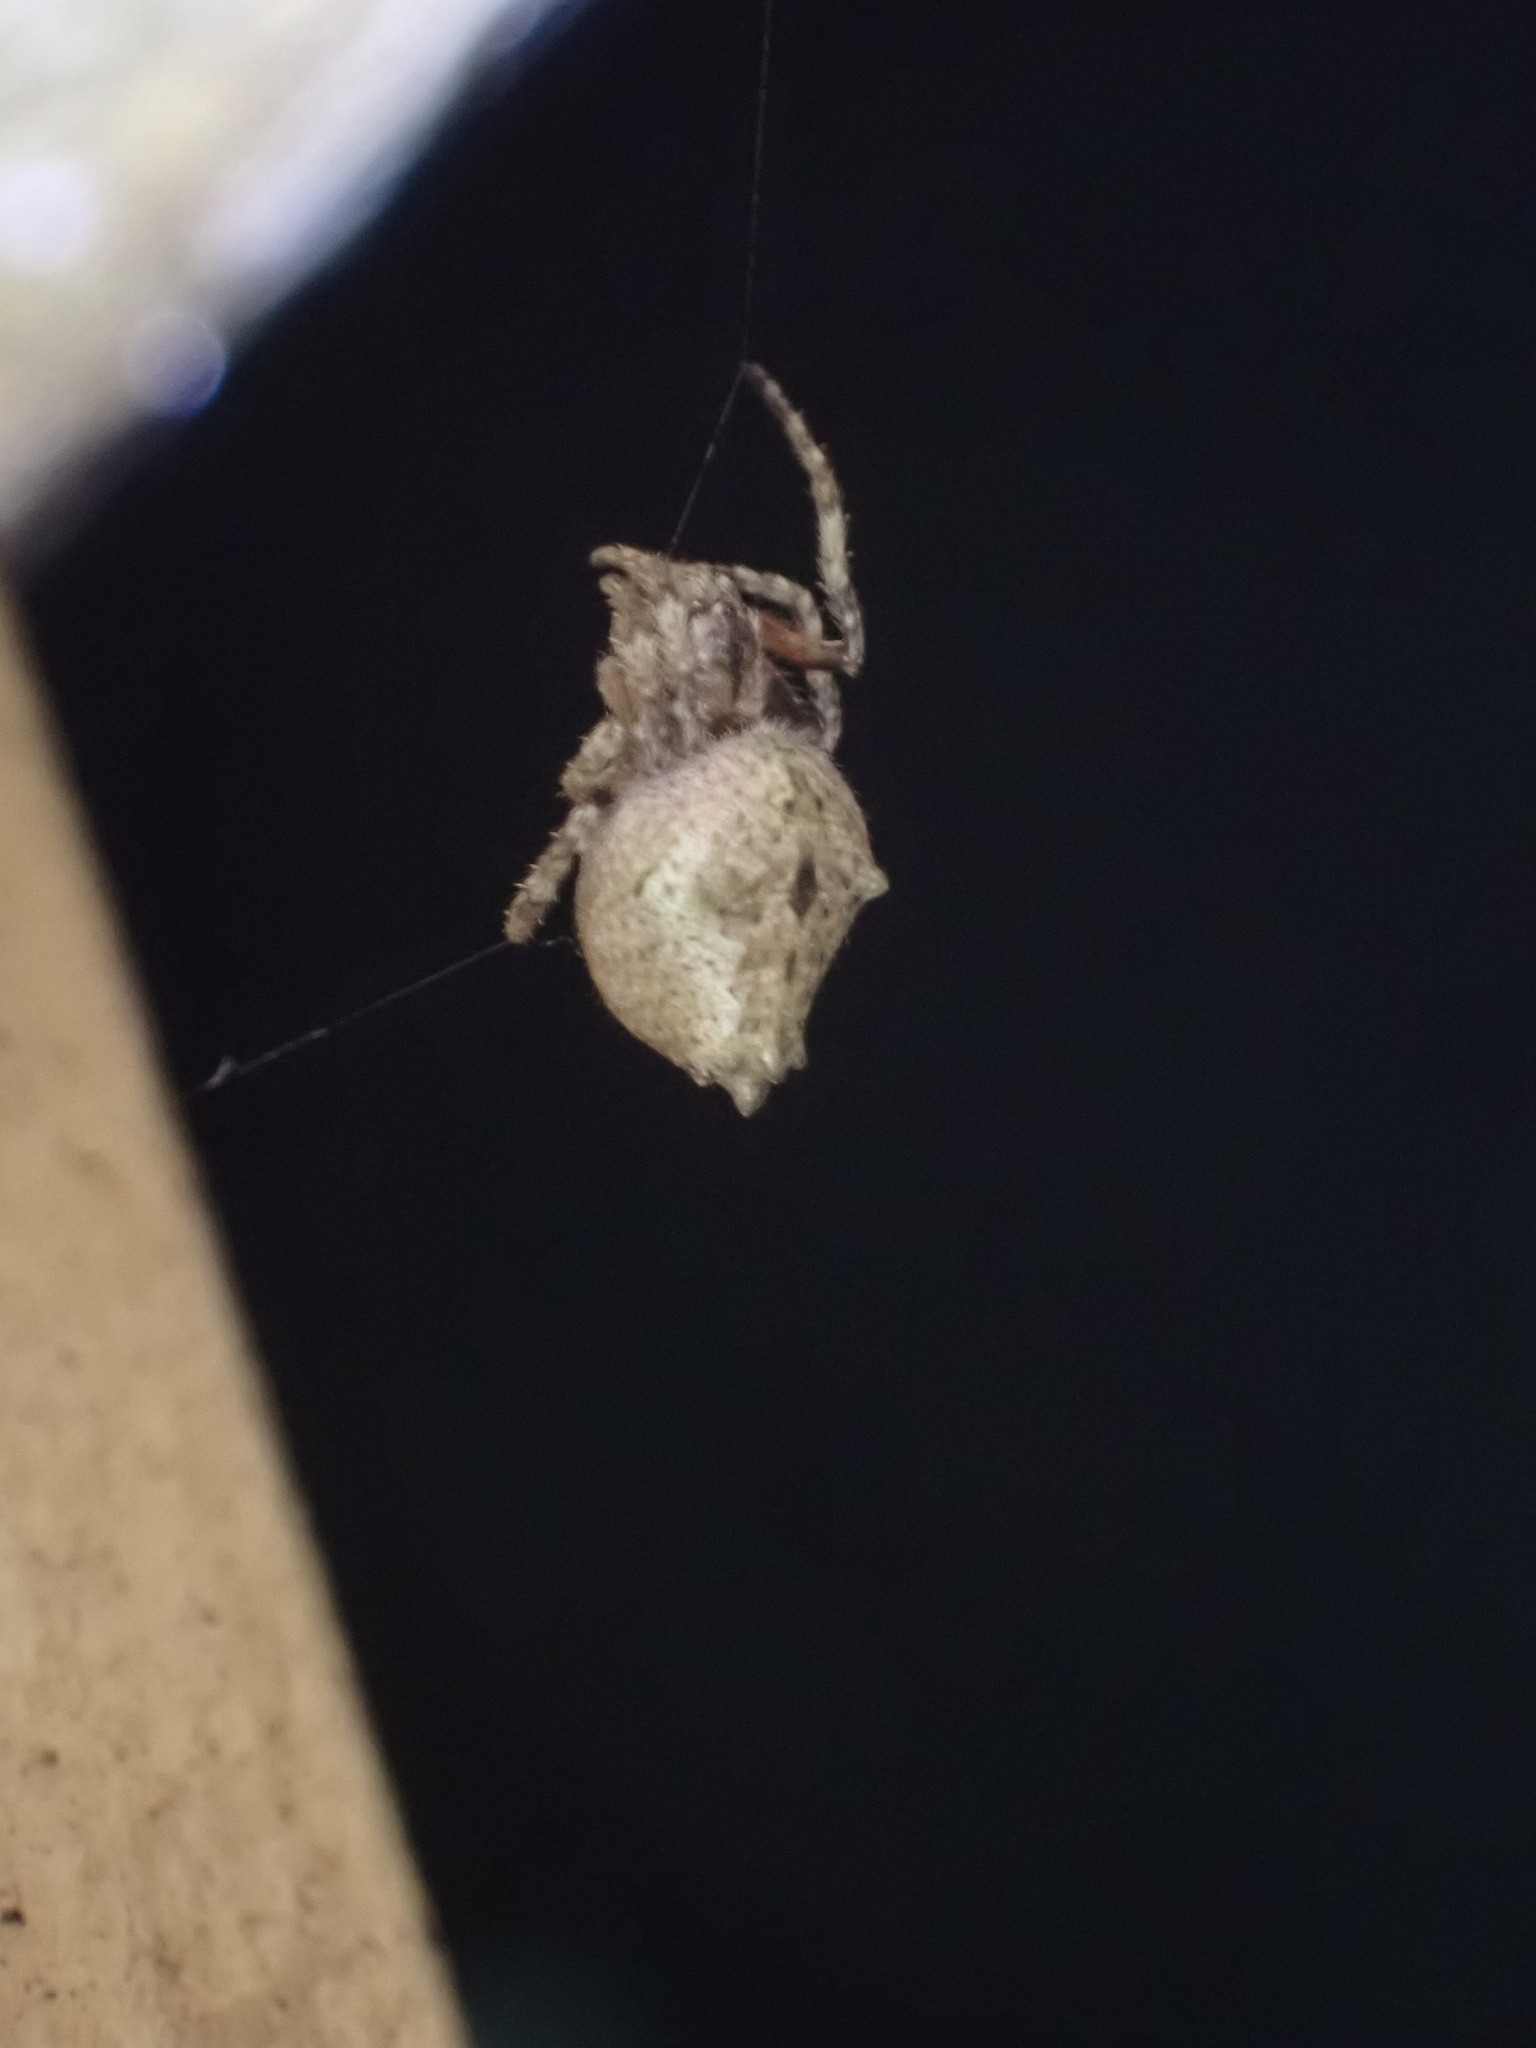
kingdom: Animalia
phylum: Arthropoda
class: Arachnida
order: Araneae
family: Araneidae
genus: Eriophora
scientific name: Eriophora pustulosa
